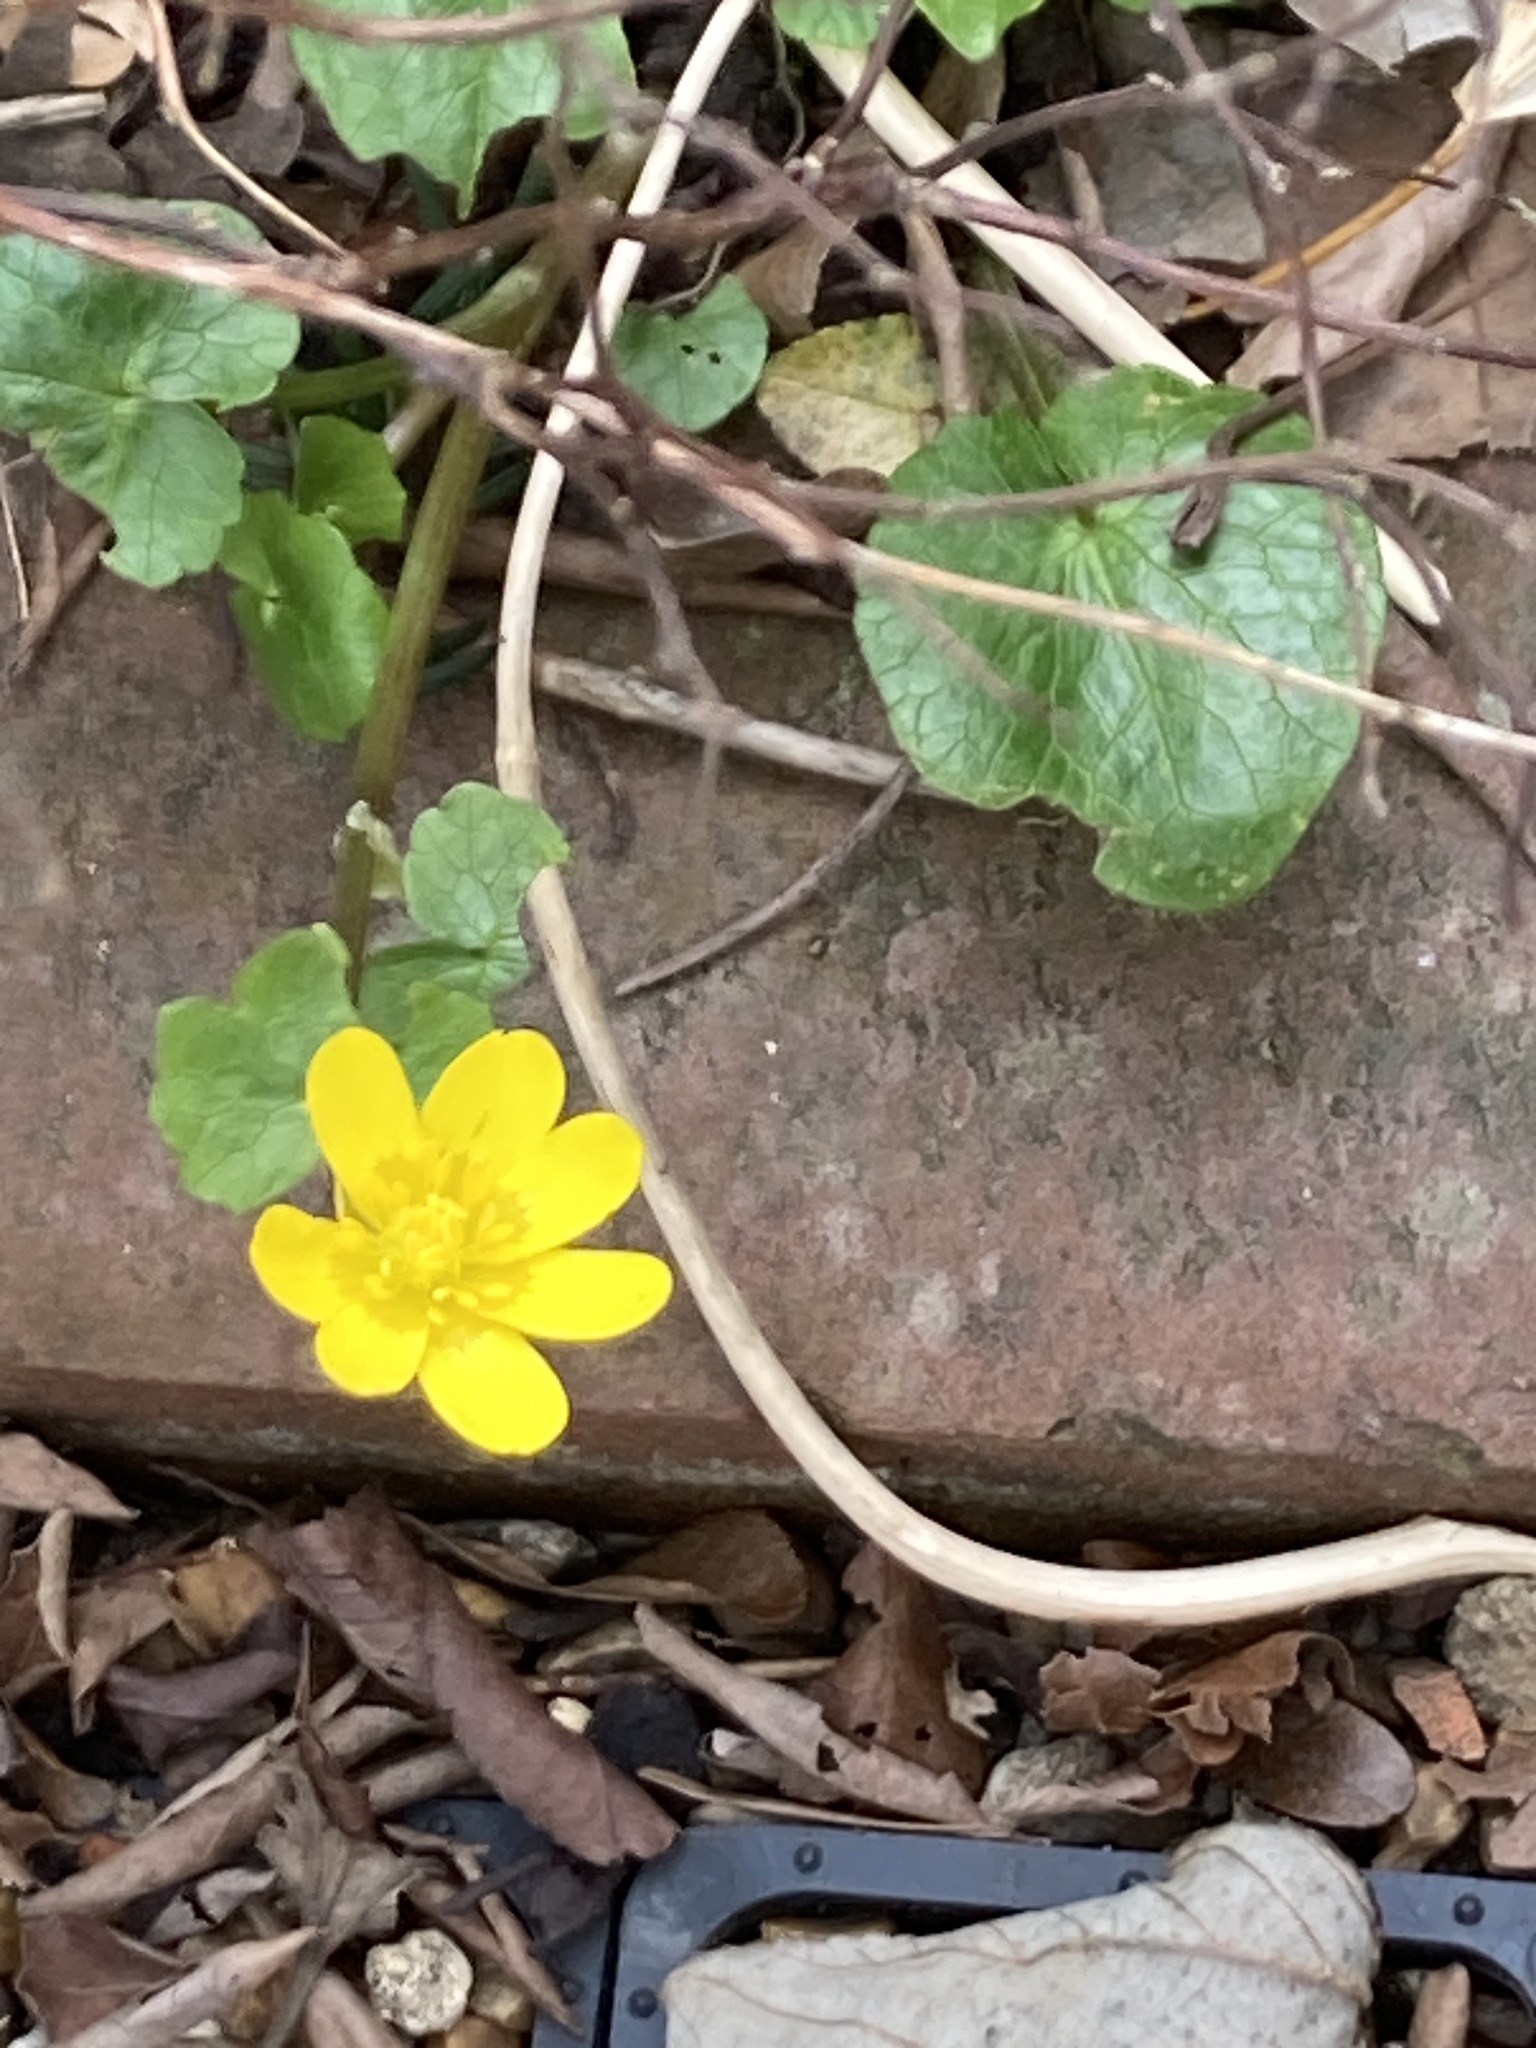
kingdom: Plantae
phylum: Tracheophyta
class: Magnoliopsida
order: Ranunculales
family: Ranunculaceae
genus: Ficaria
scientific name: Ficaria verna
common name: Lesser celandine
